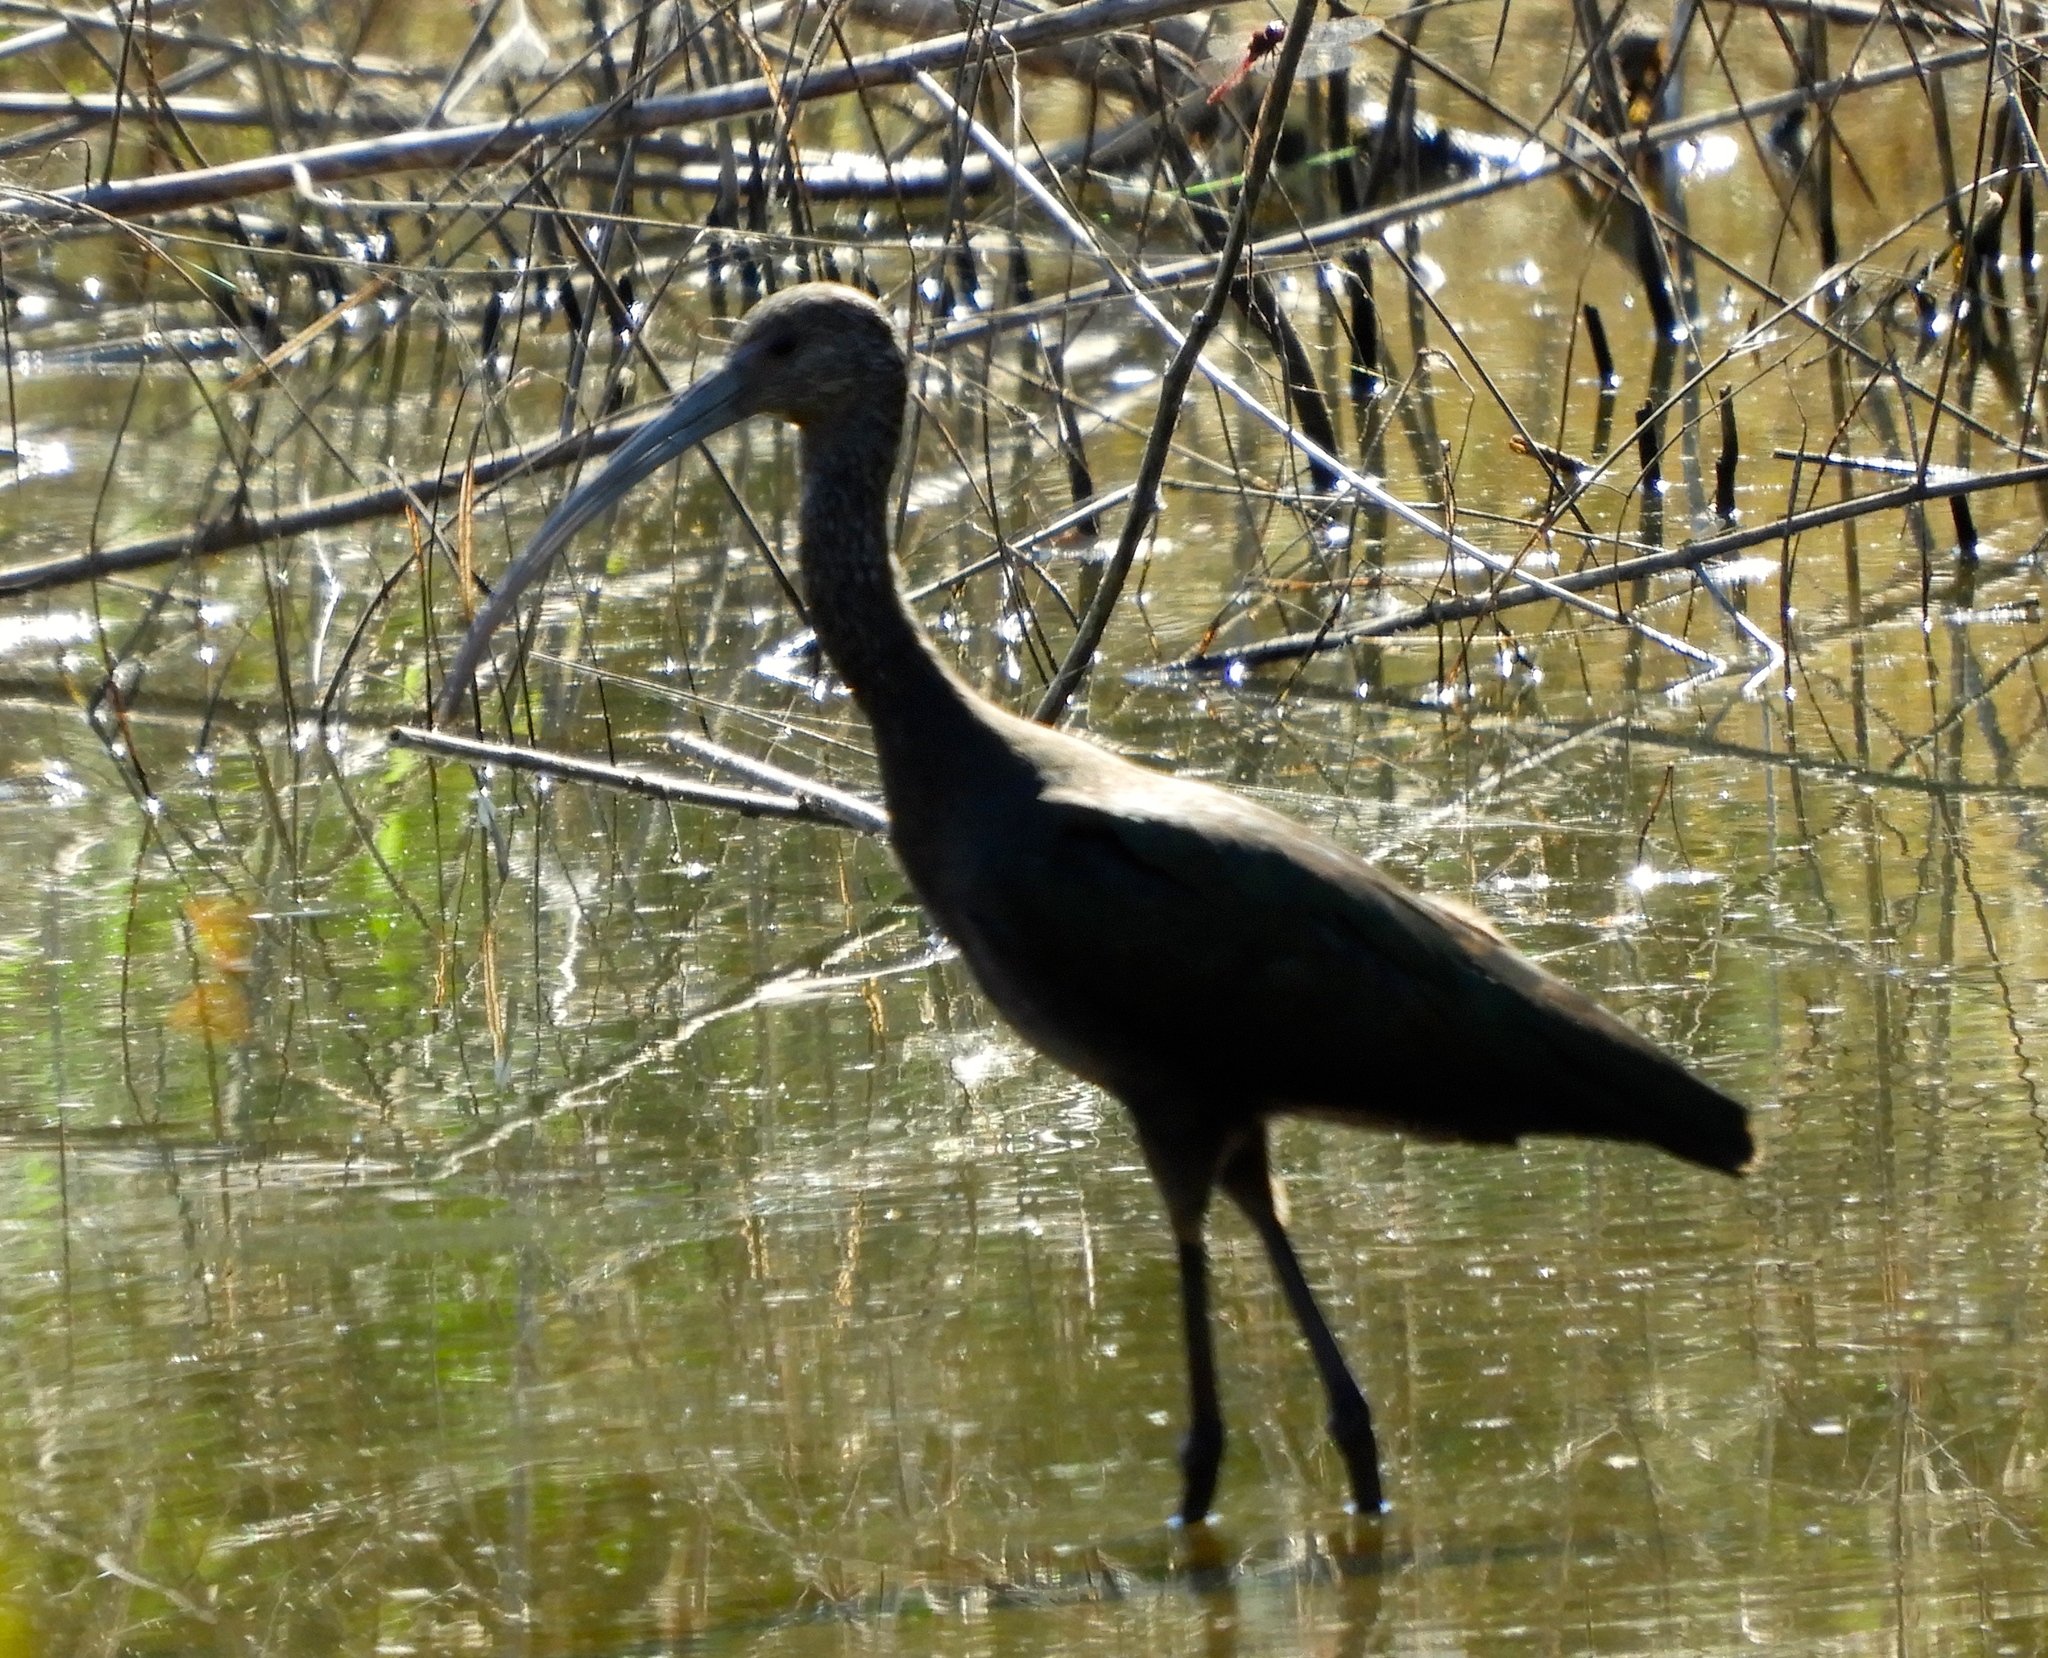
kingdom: Animalia
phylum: Chordata
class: Aves
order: Pelecaniformes
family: Threskiornithidae
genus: Plegadis
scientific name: Plegadis chihi
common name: White-faced ibis
